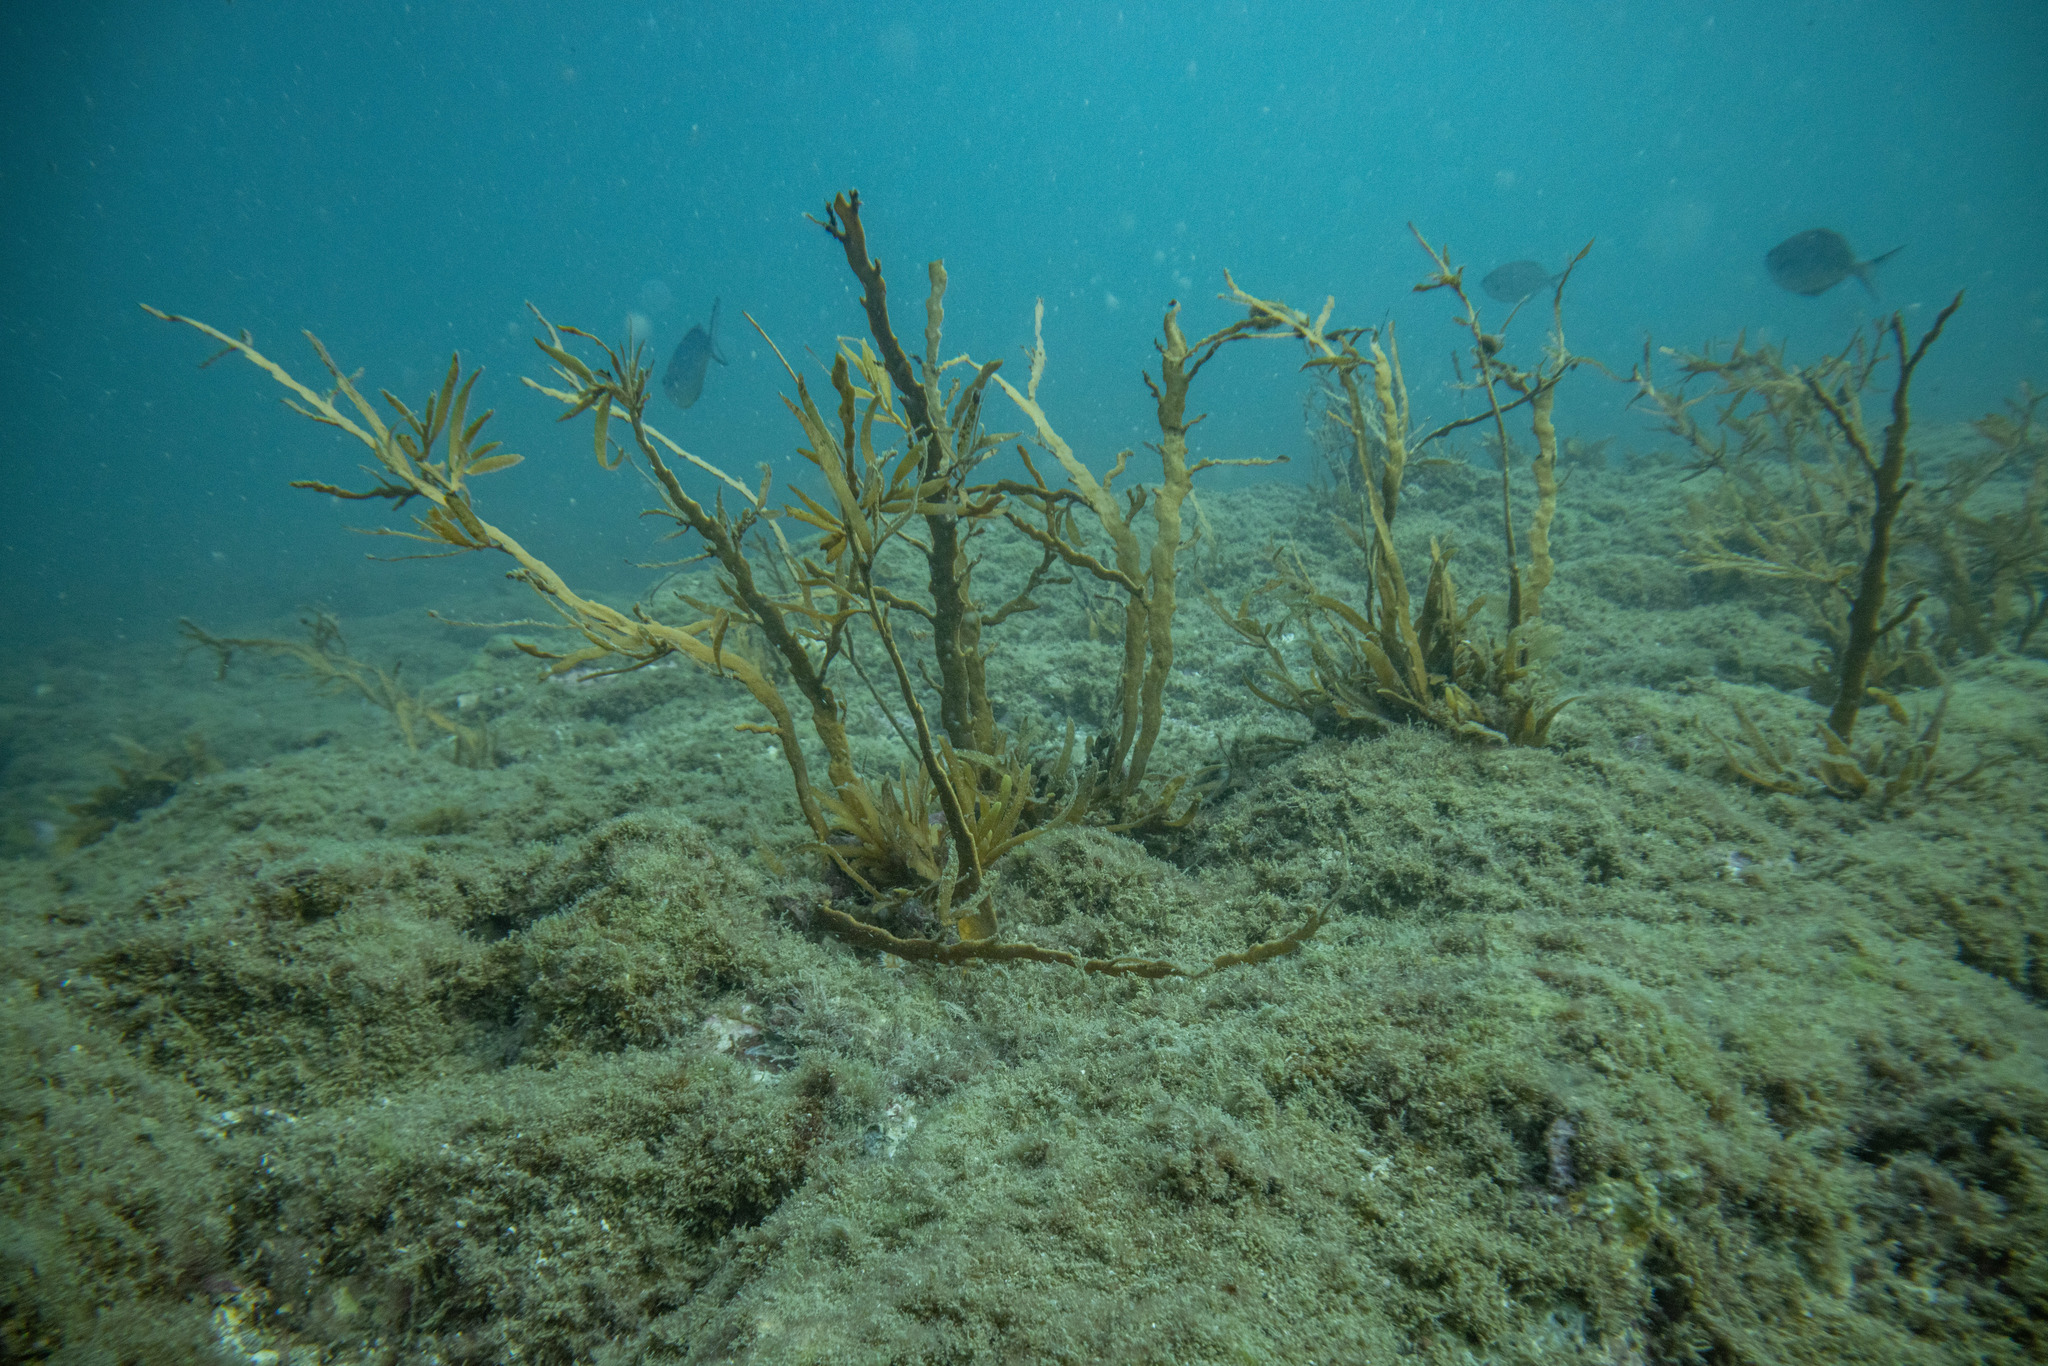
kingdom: Chromista
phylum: Ochrophyta
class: Phaeophyceae
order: Fucales
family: Sargassaceae
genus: Carpophyllum
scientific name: Carpophyllum maschalocarpum
